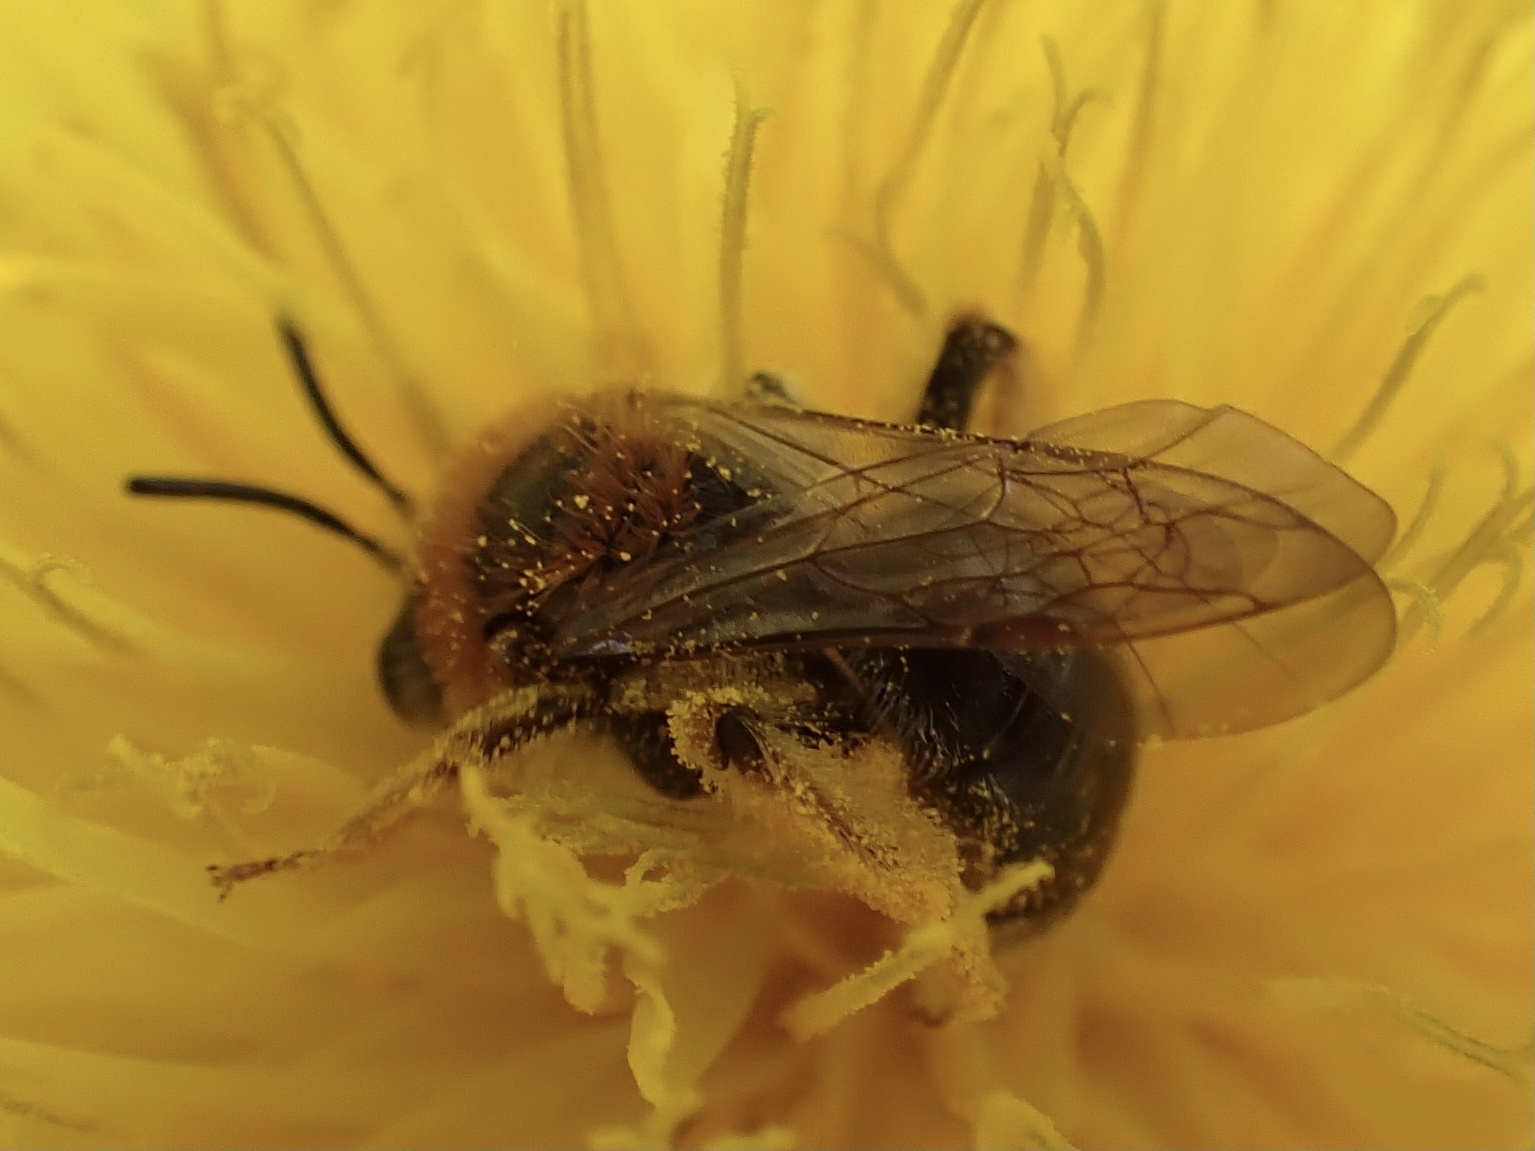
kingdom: Animalia
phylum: Arthropoda
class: Insecta
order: Hymenoptera
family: Andrenidae
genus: Andrena
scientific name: Andrena haemorrhoa
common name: Early mining bee
